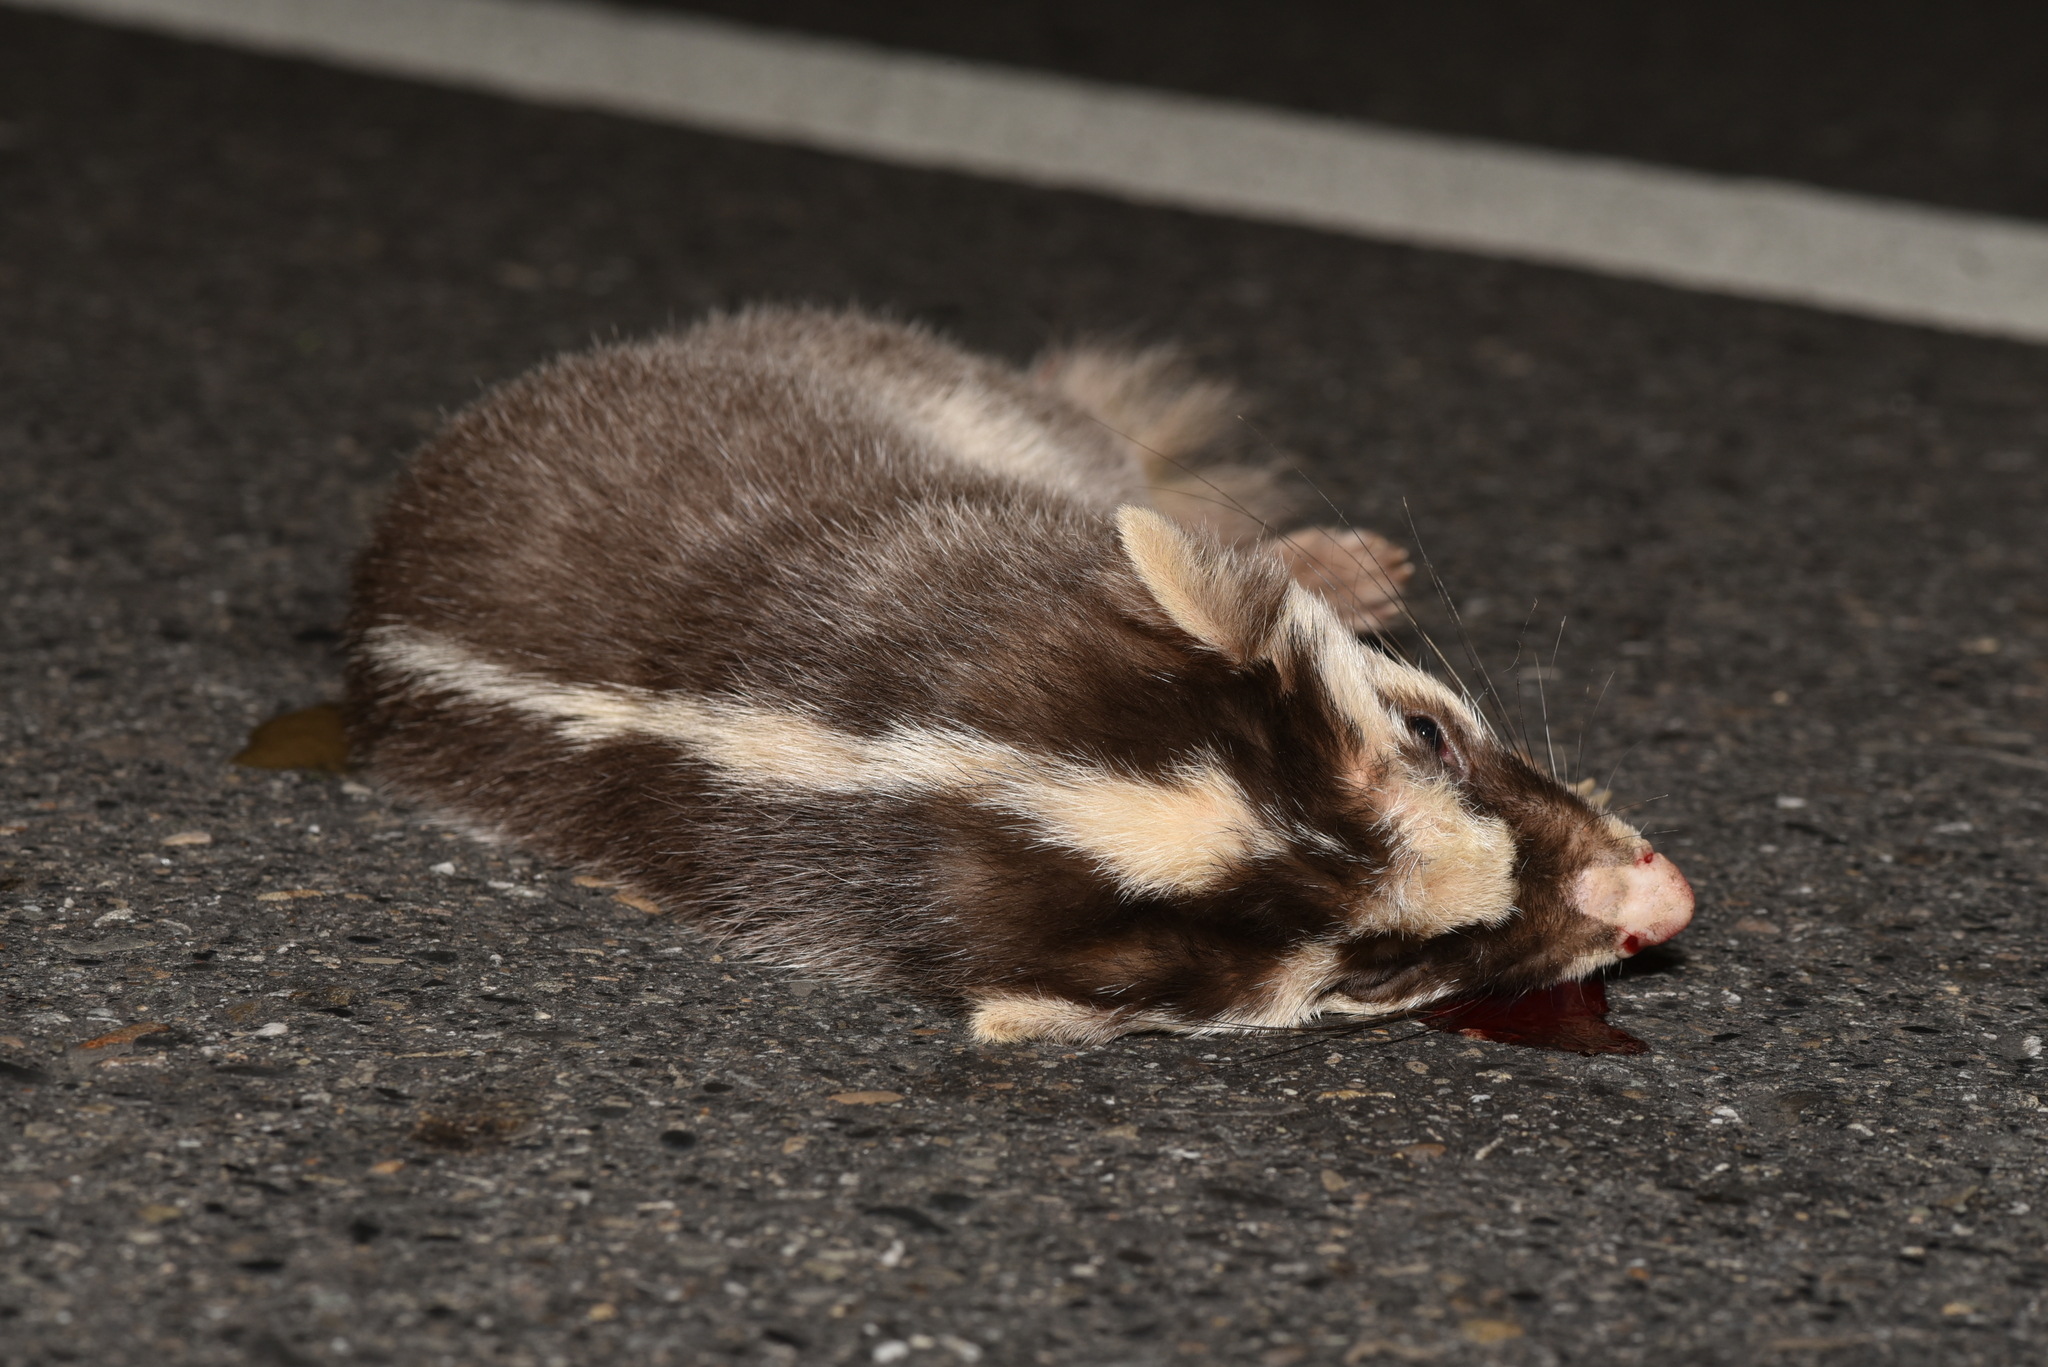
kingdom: Animalia
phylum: Chordata
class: Mammalia
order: Carnivora
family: Mustelidae
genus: Melogale
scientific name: Melogale
